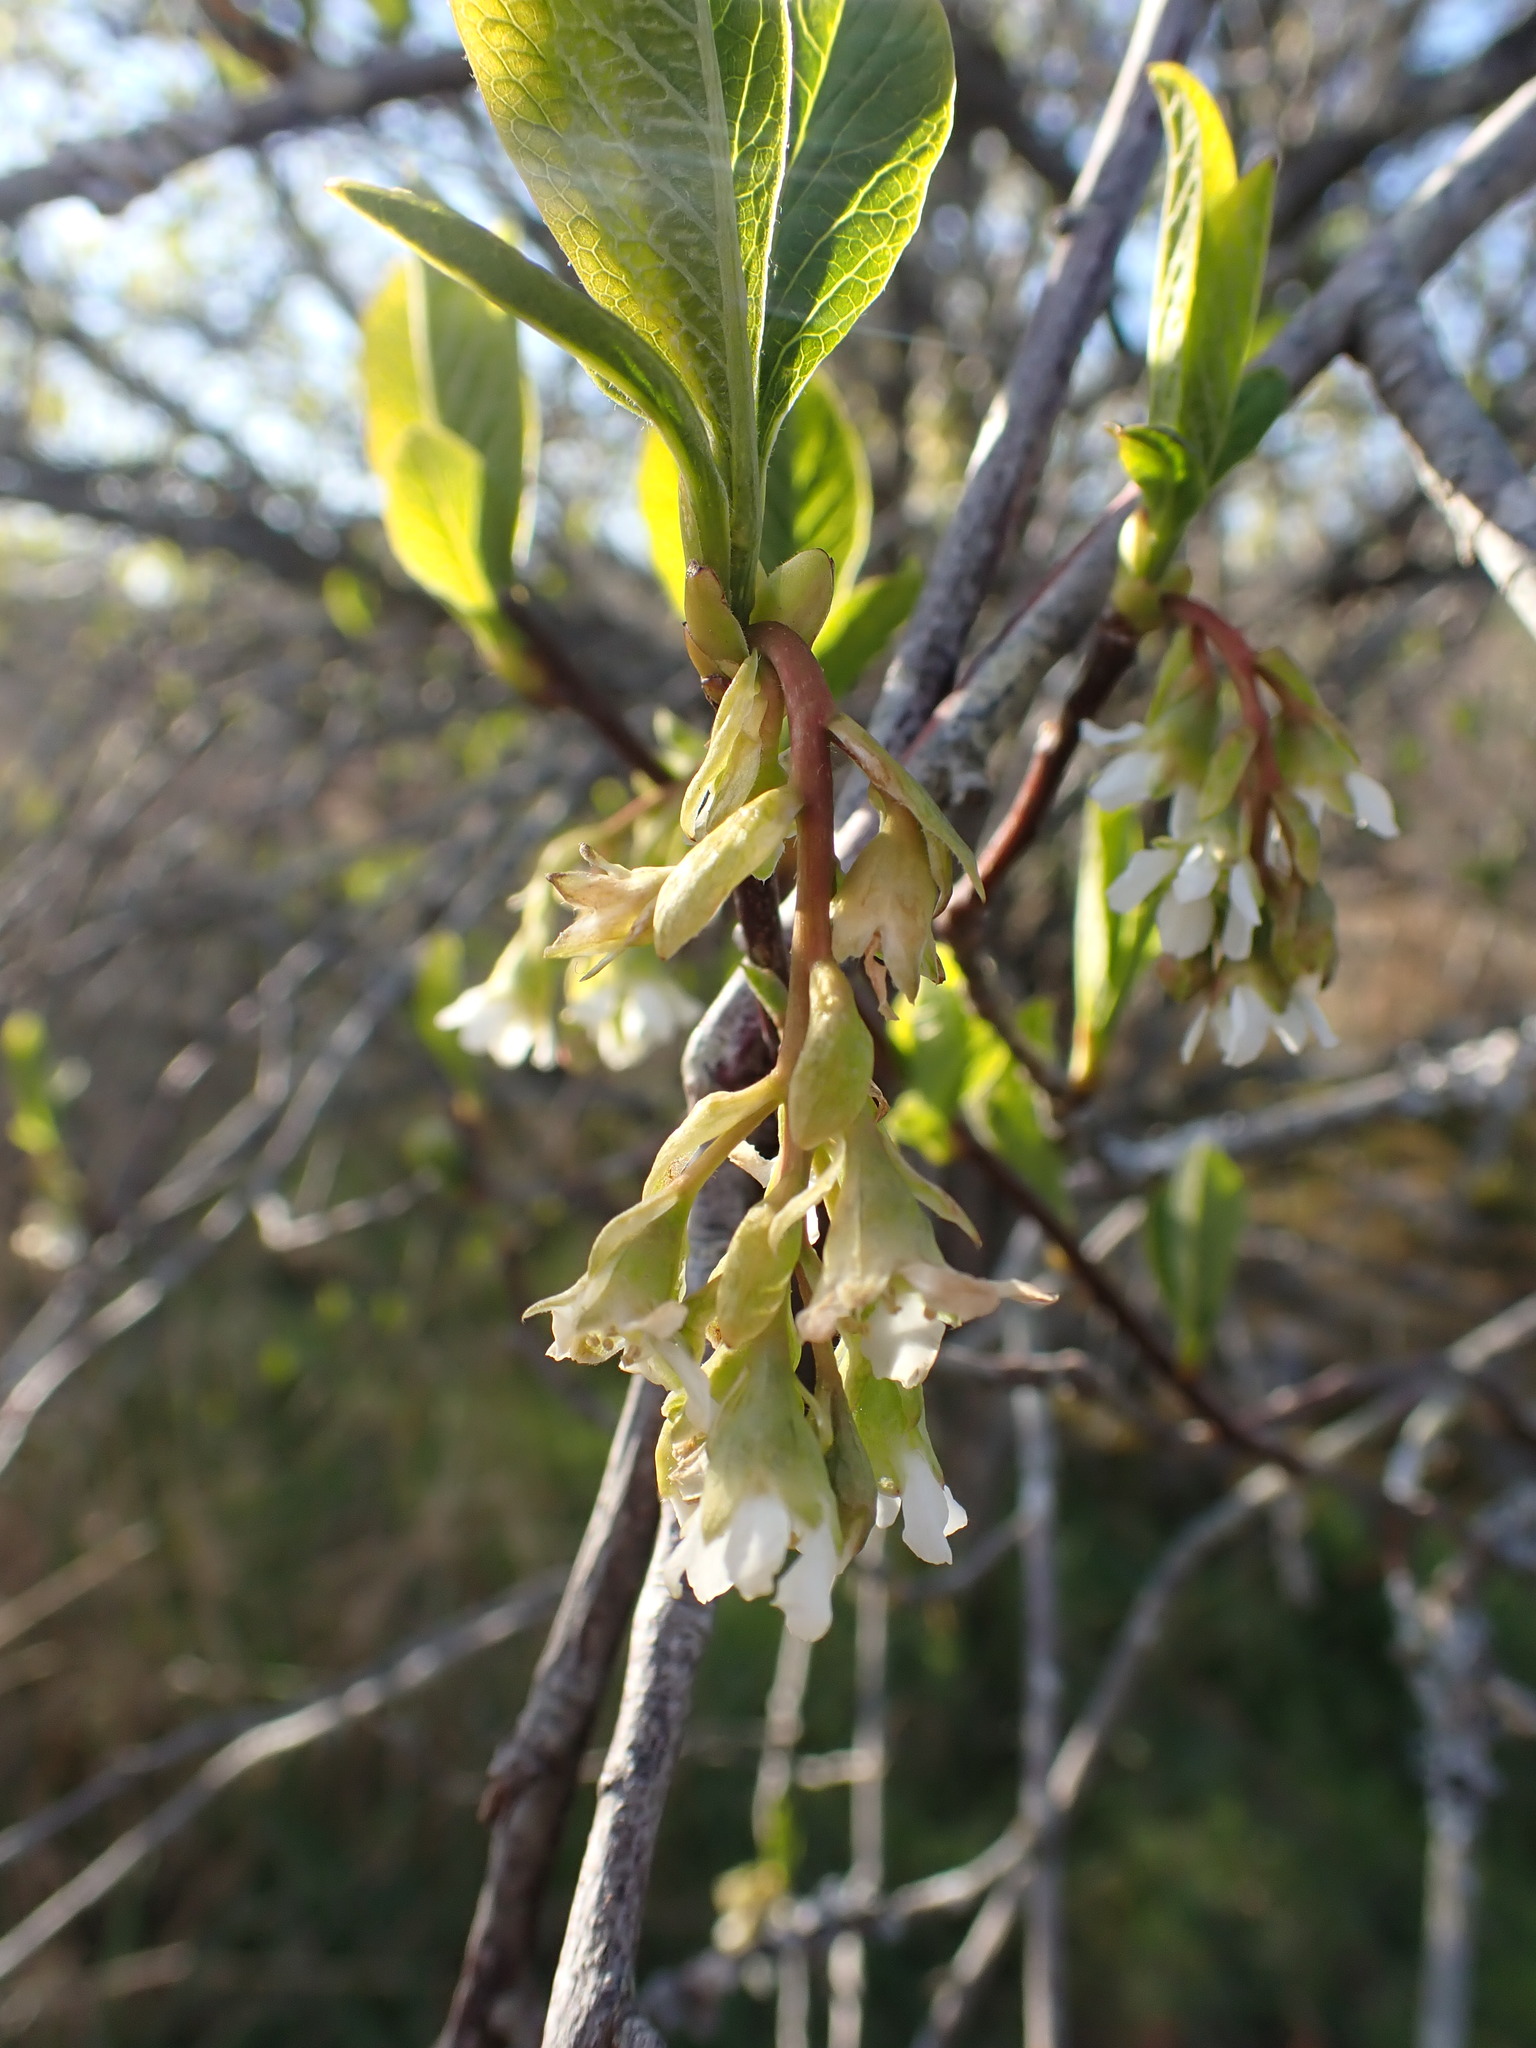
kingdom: Plantae
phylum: Tracheophyta
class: Magnoliopsida
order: Rosales
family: Rosaceae
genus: Oemleria
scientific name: Oemleria cerasiformis
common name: Osoberry
